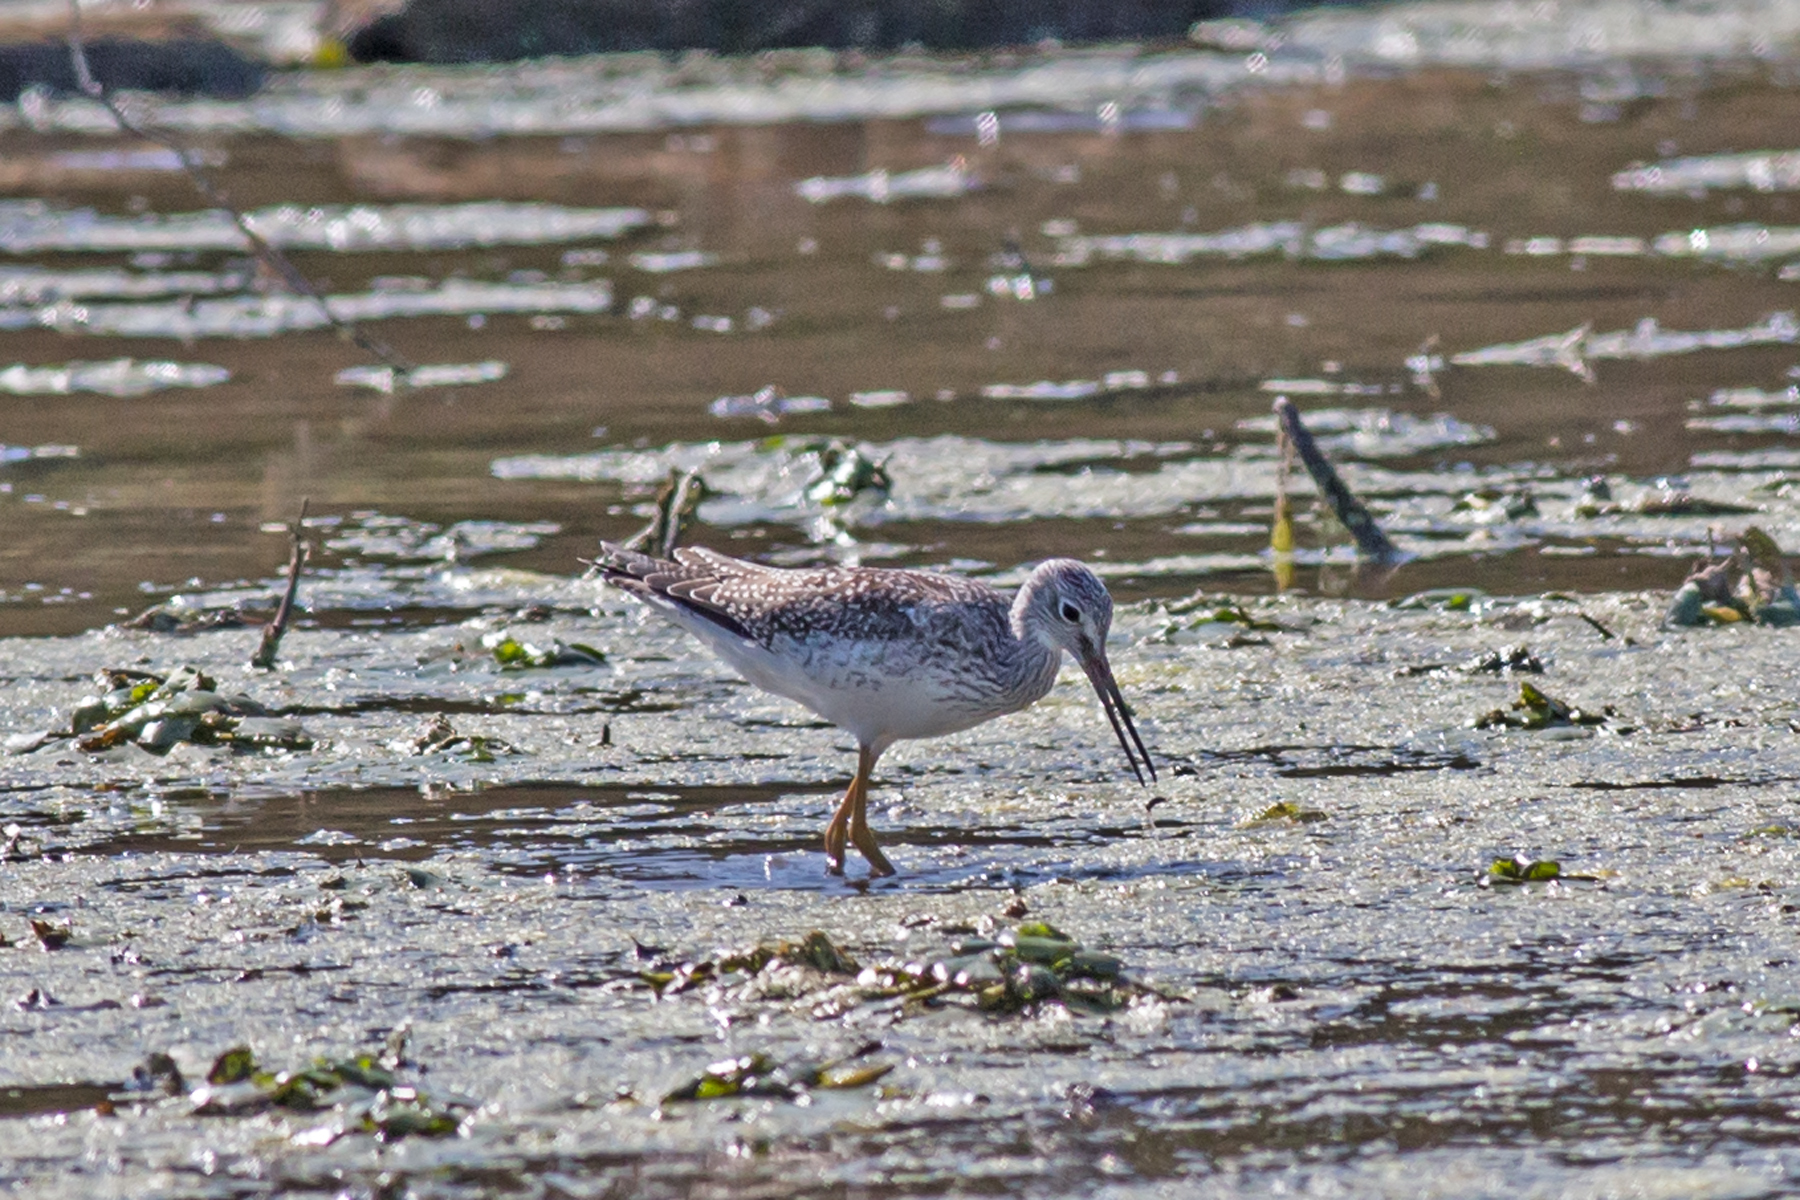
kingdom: Animalia
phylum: Chordata
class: Aves
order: Charadriiformes
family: Scolopacidae
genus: Tringa
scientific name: Tringa melanoleuca
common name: Greater yellowlegs
